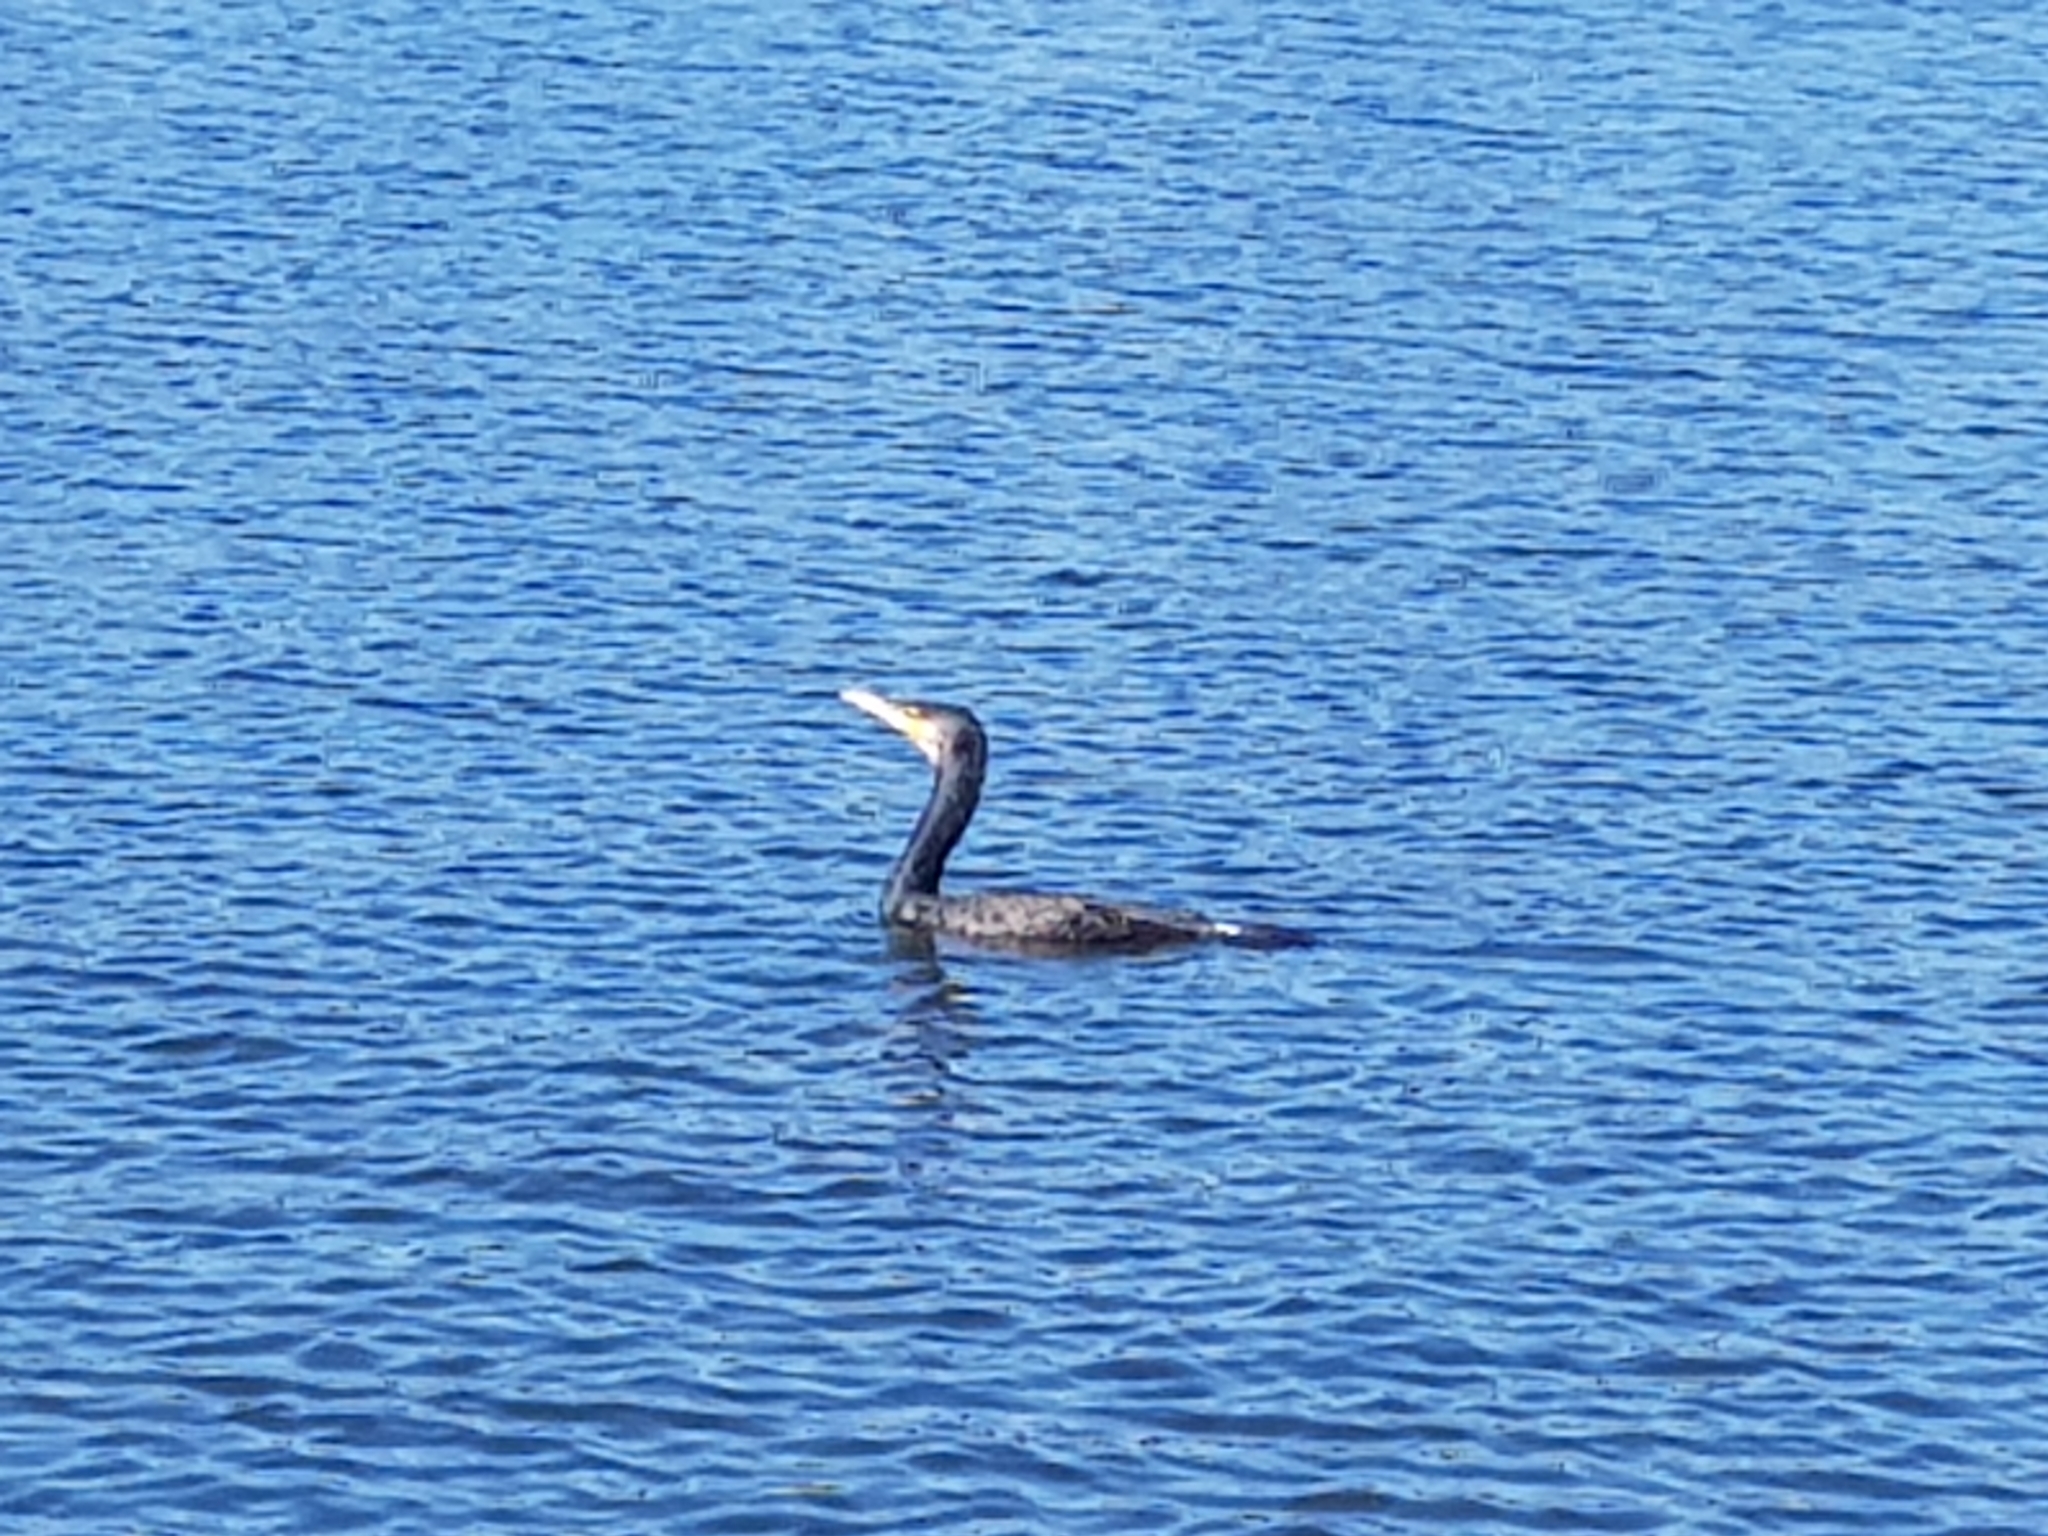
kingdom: Animalia
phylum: Chordata
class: Aves
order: Suliformes
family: Phalacrocoracidae
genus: Phalacrocorax
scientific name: Phalacrocorax carbo
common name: Great cormorant
